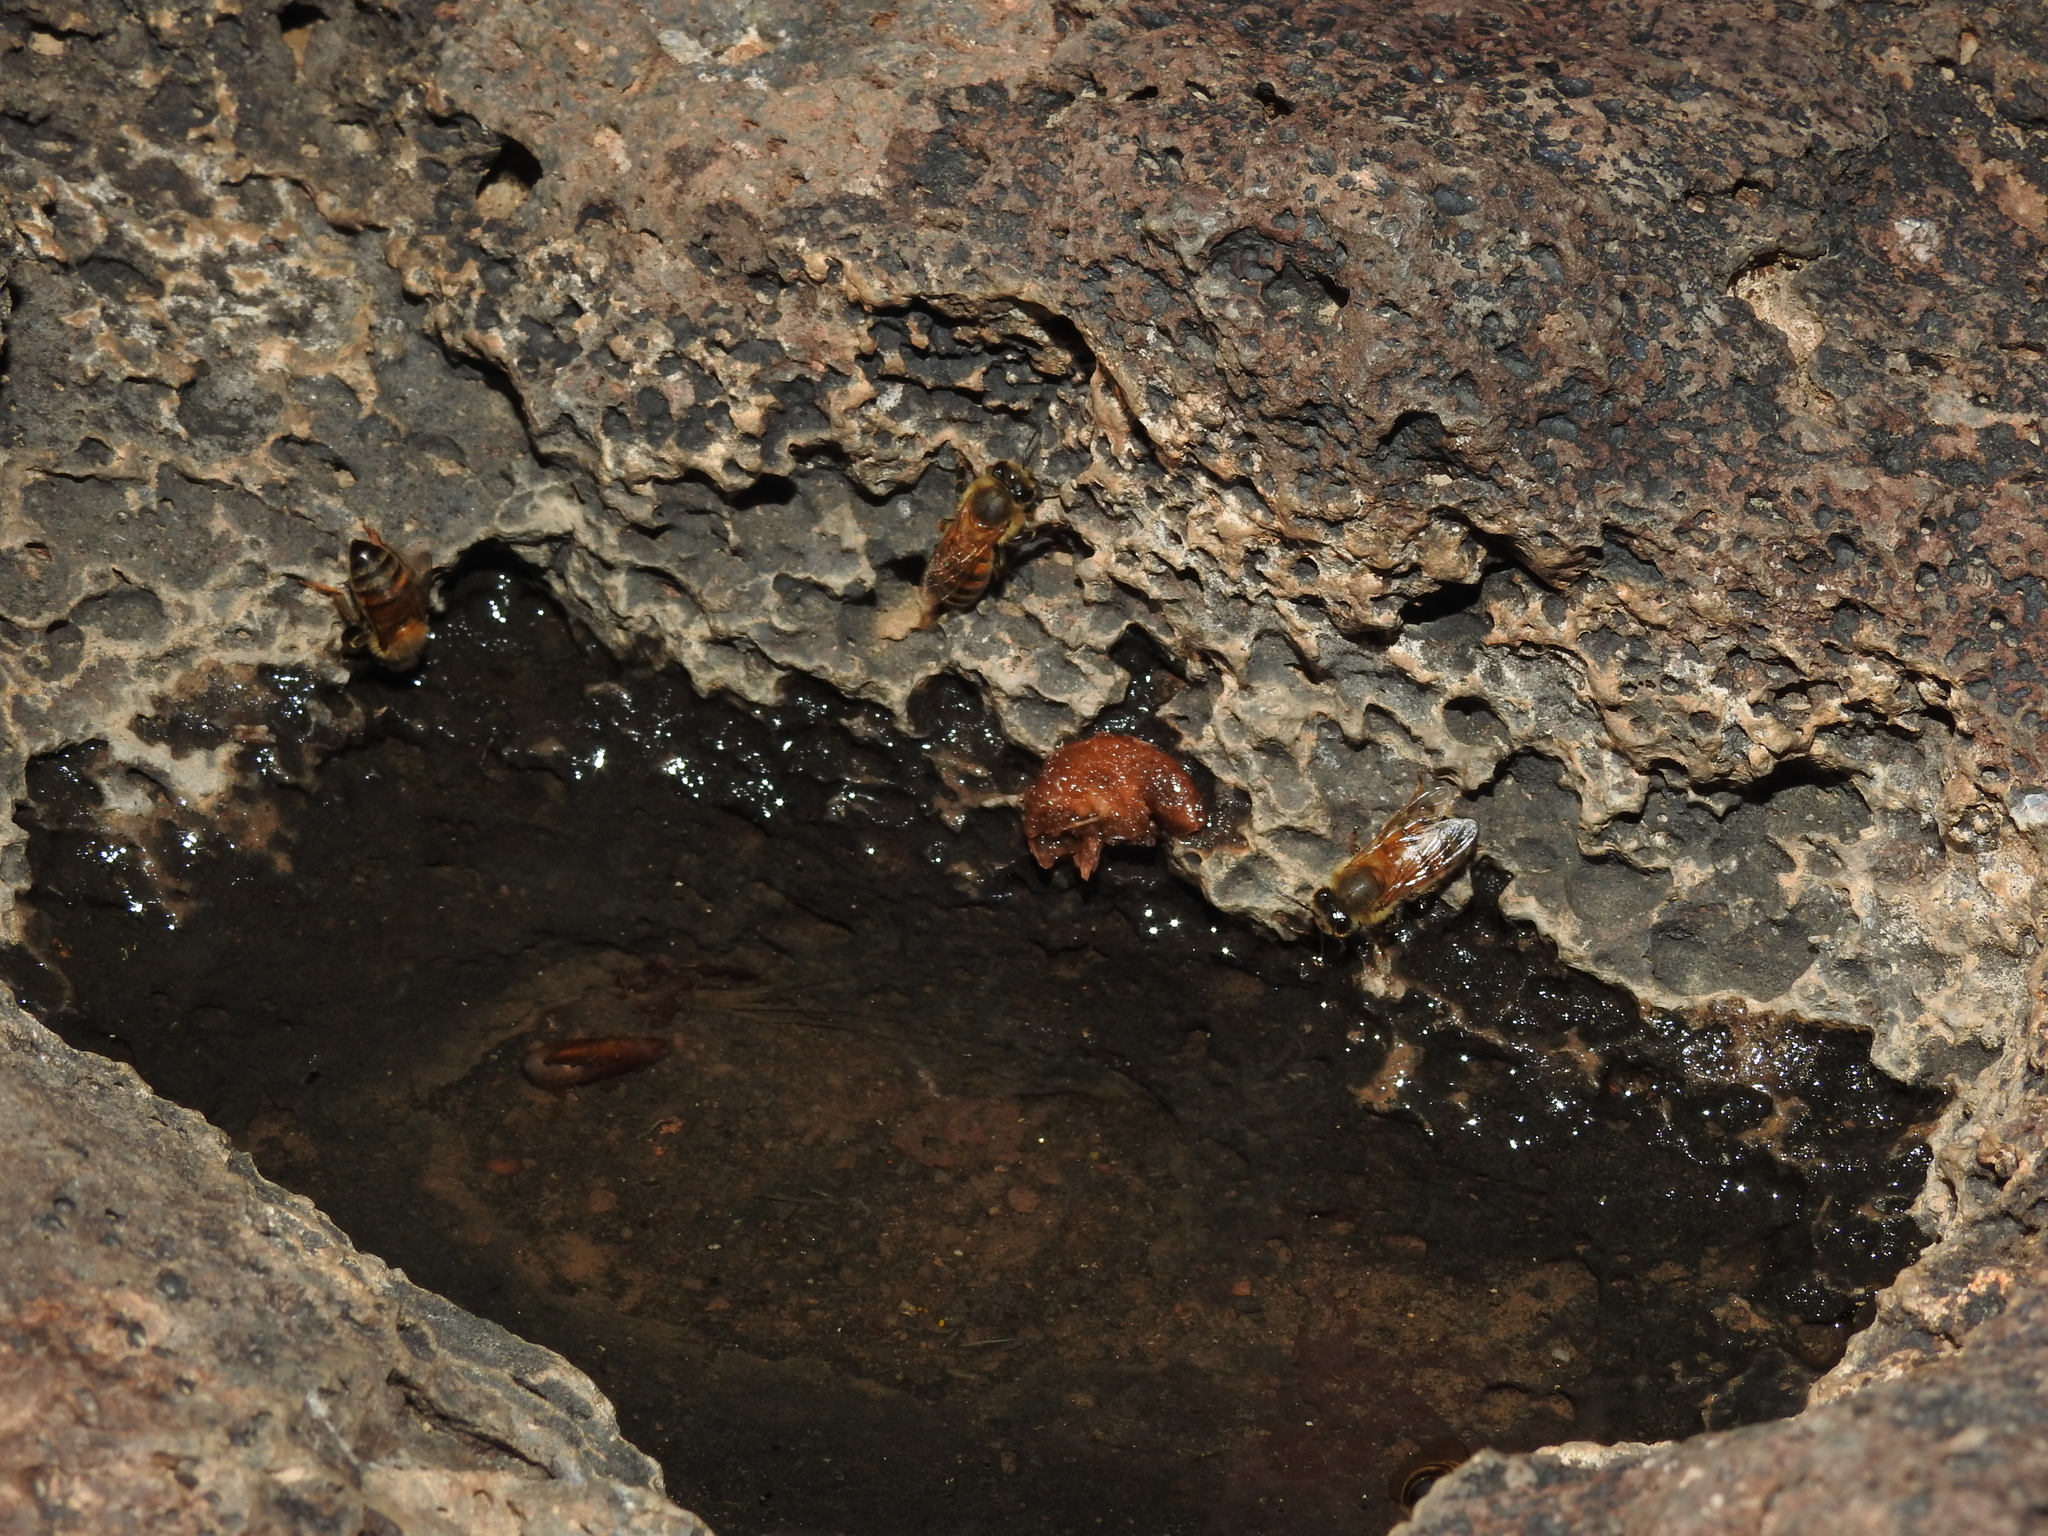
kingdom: Animalia
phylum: Arthropoda
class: Insecta
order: Hymenoptera
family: Apidae
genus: Apis
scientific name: Apis mellifera
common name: Honey bee
